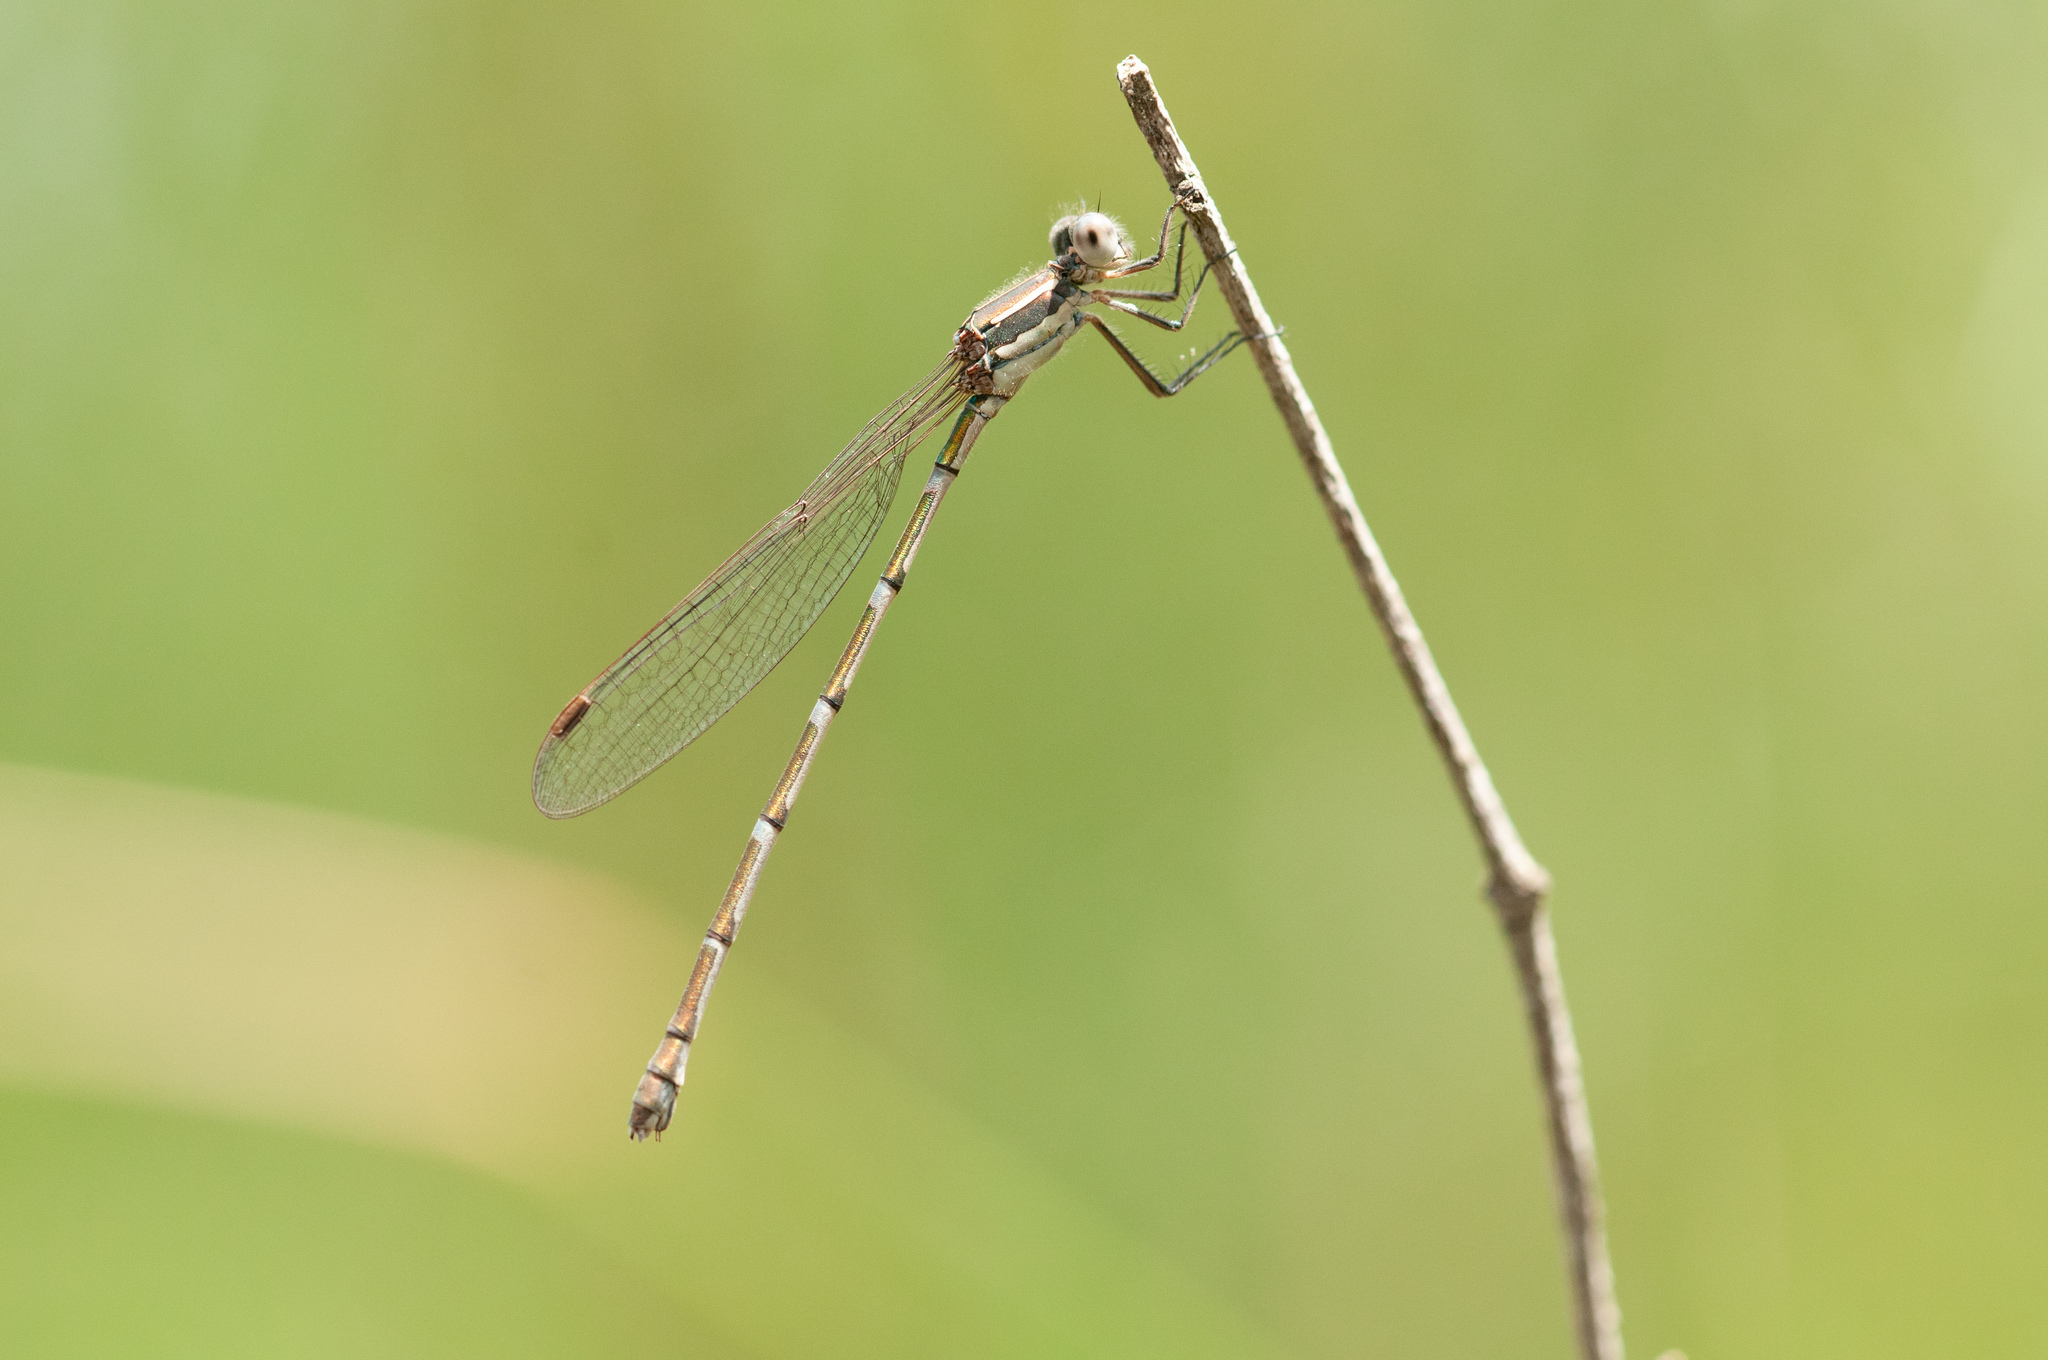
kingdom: Animalia
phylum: Arthropoda
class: Insecta
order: Odonata
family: Lestidae
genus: Austrolestes
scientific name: Austrolestes leda
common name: Wandering ringtail
